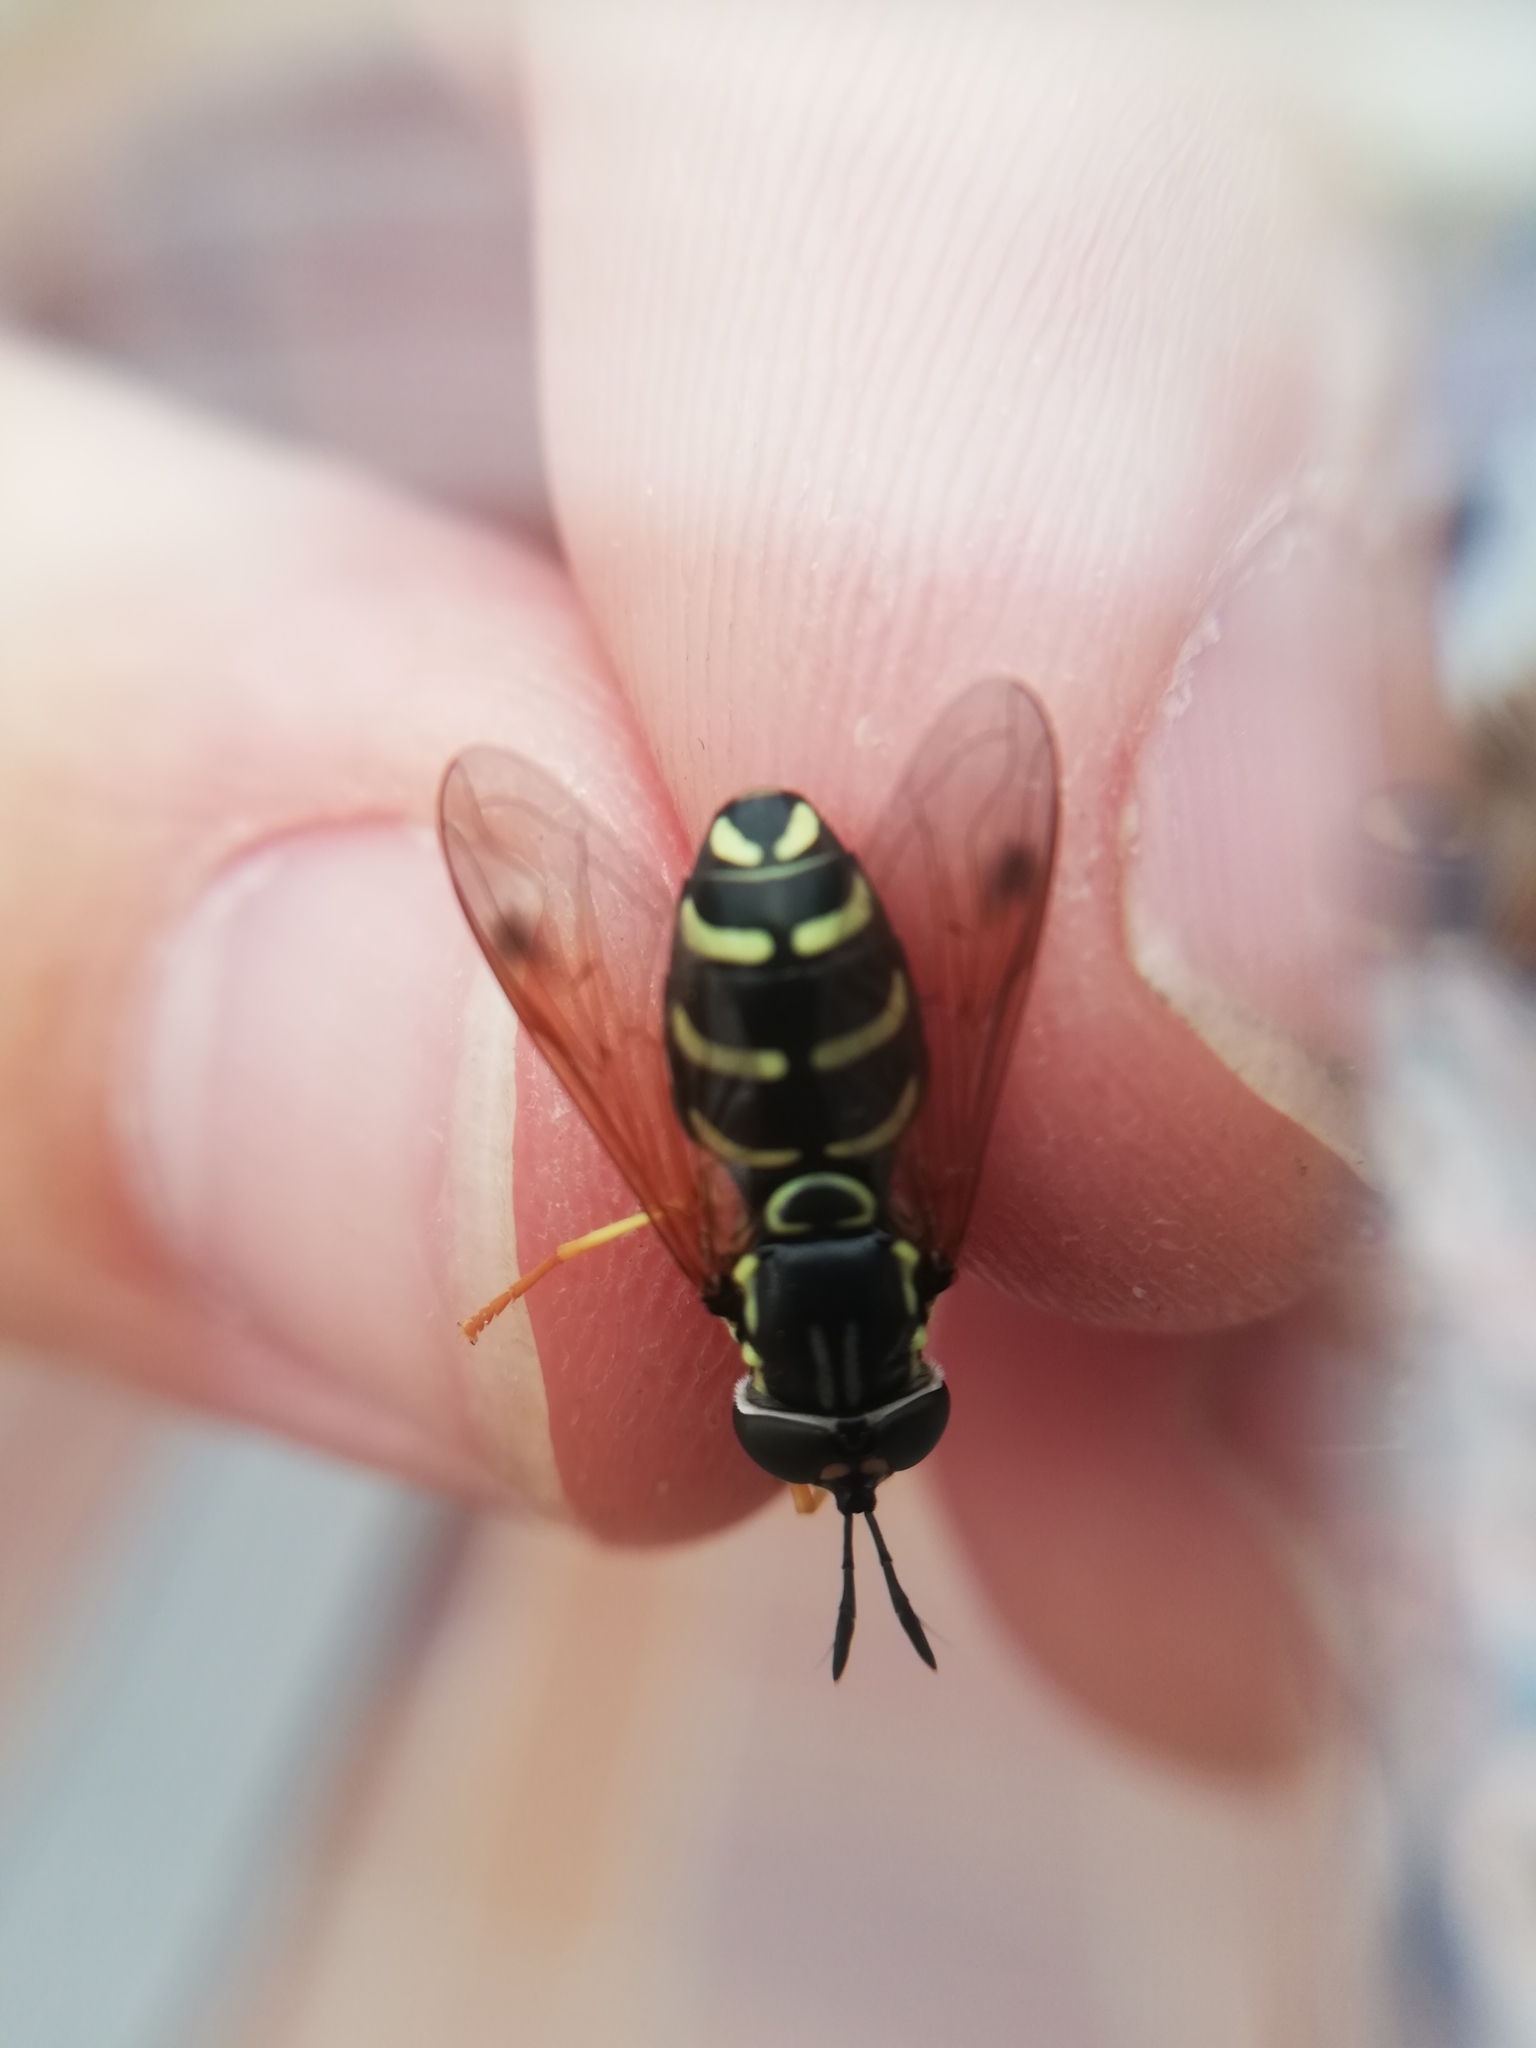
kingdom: Animalia
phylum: Arthropoda
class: Insecta
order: Diptera
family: Syrphidae
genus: Chrysotoxum
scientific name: Chrysotoxum festivum
